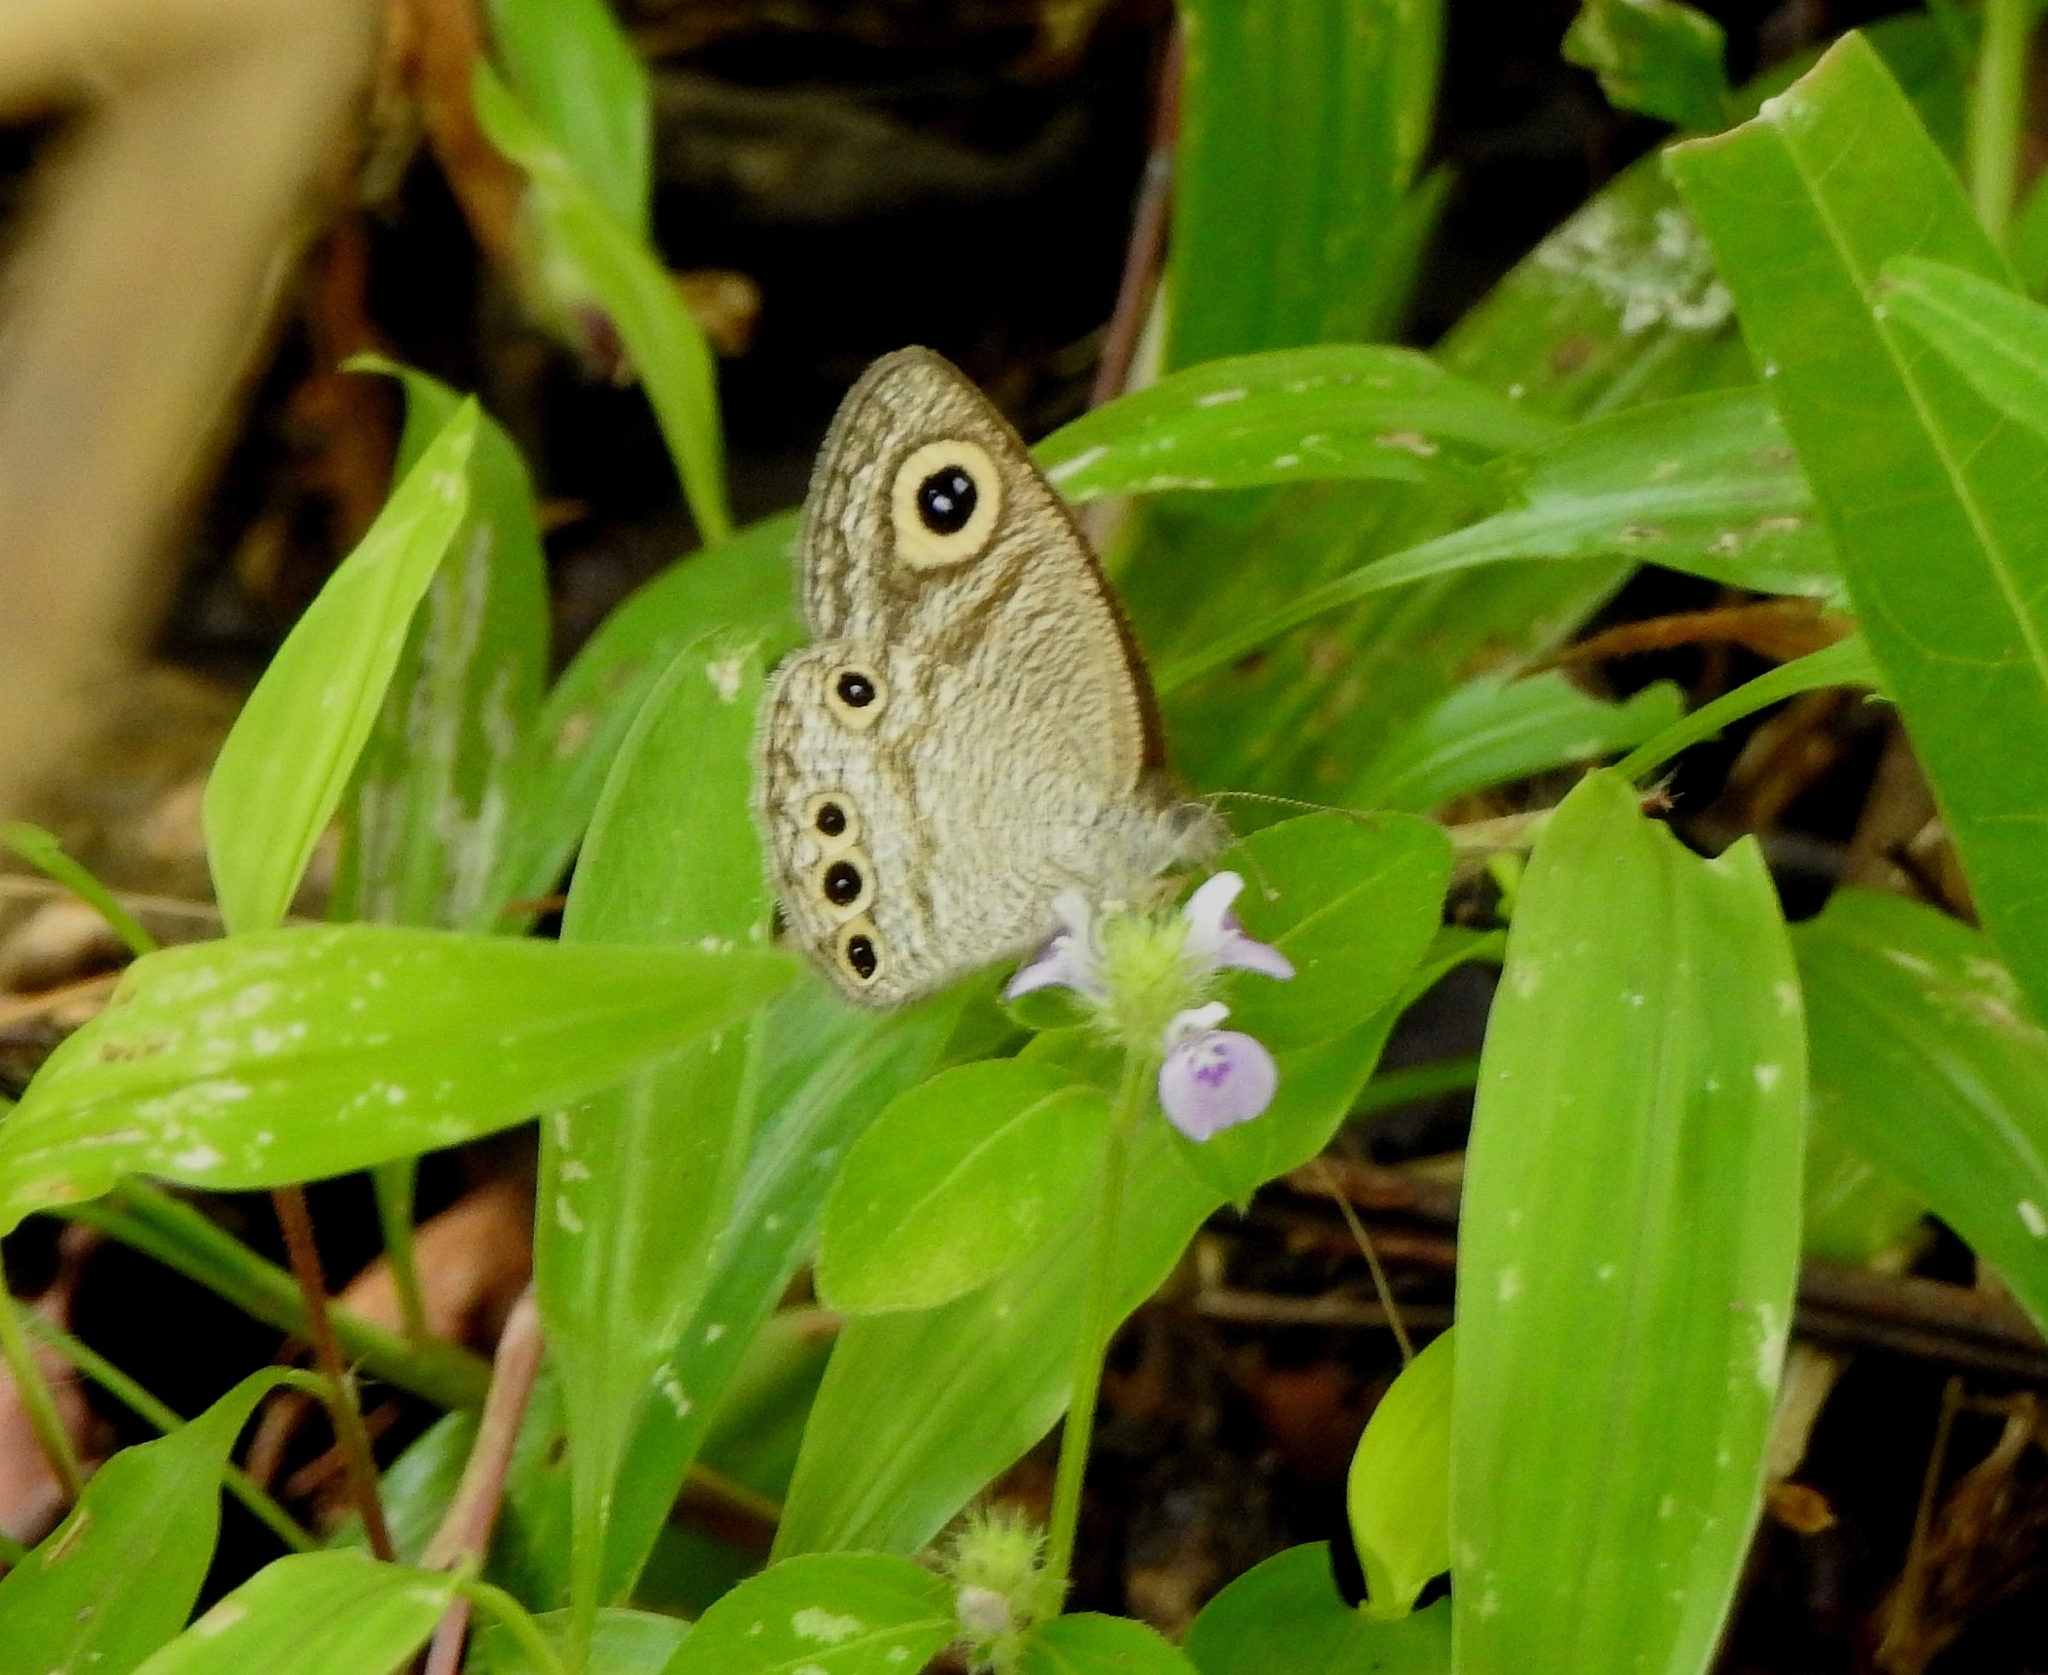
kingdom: Animalia
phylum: Arthropoda
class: Insecta
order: Lepidoptera
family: Nymphalidae
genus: Ypthima
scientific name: Ypthima huebneri
